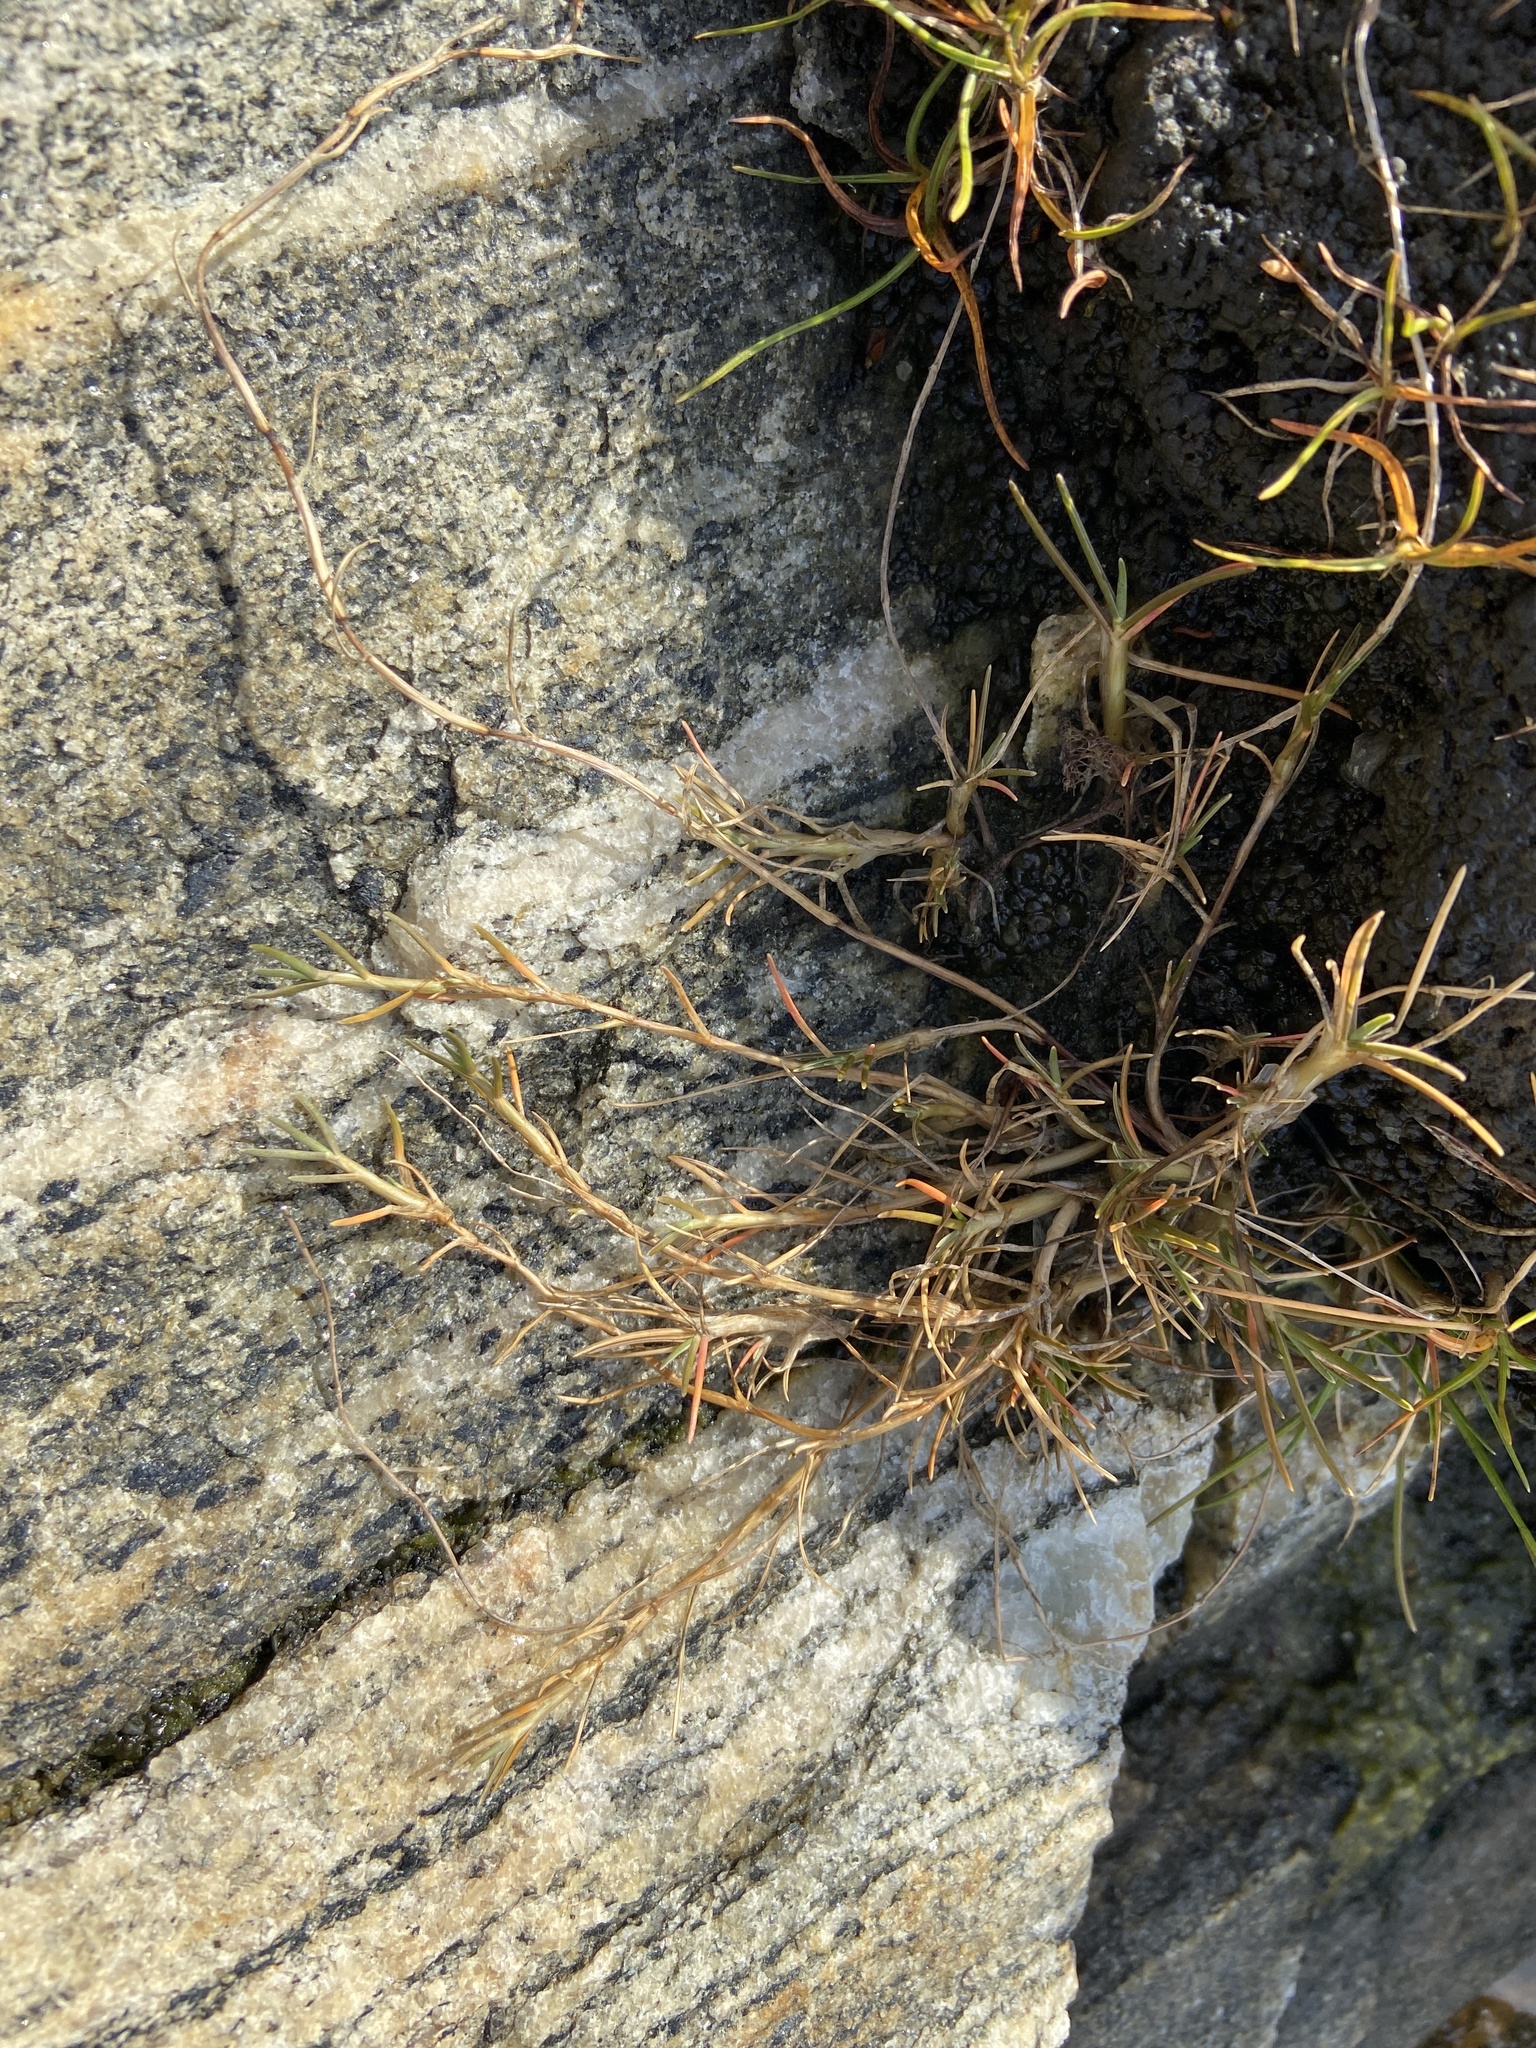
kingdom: Plantae
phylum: Tracheophyta
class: Liliopsida
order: Poales
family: Poaceae
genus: Puccinellia
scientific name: Puccinellia phryganodes
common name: Creeping alkaligrass
